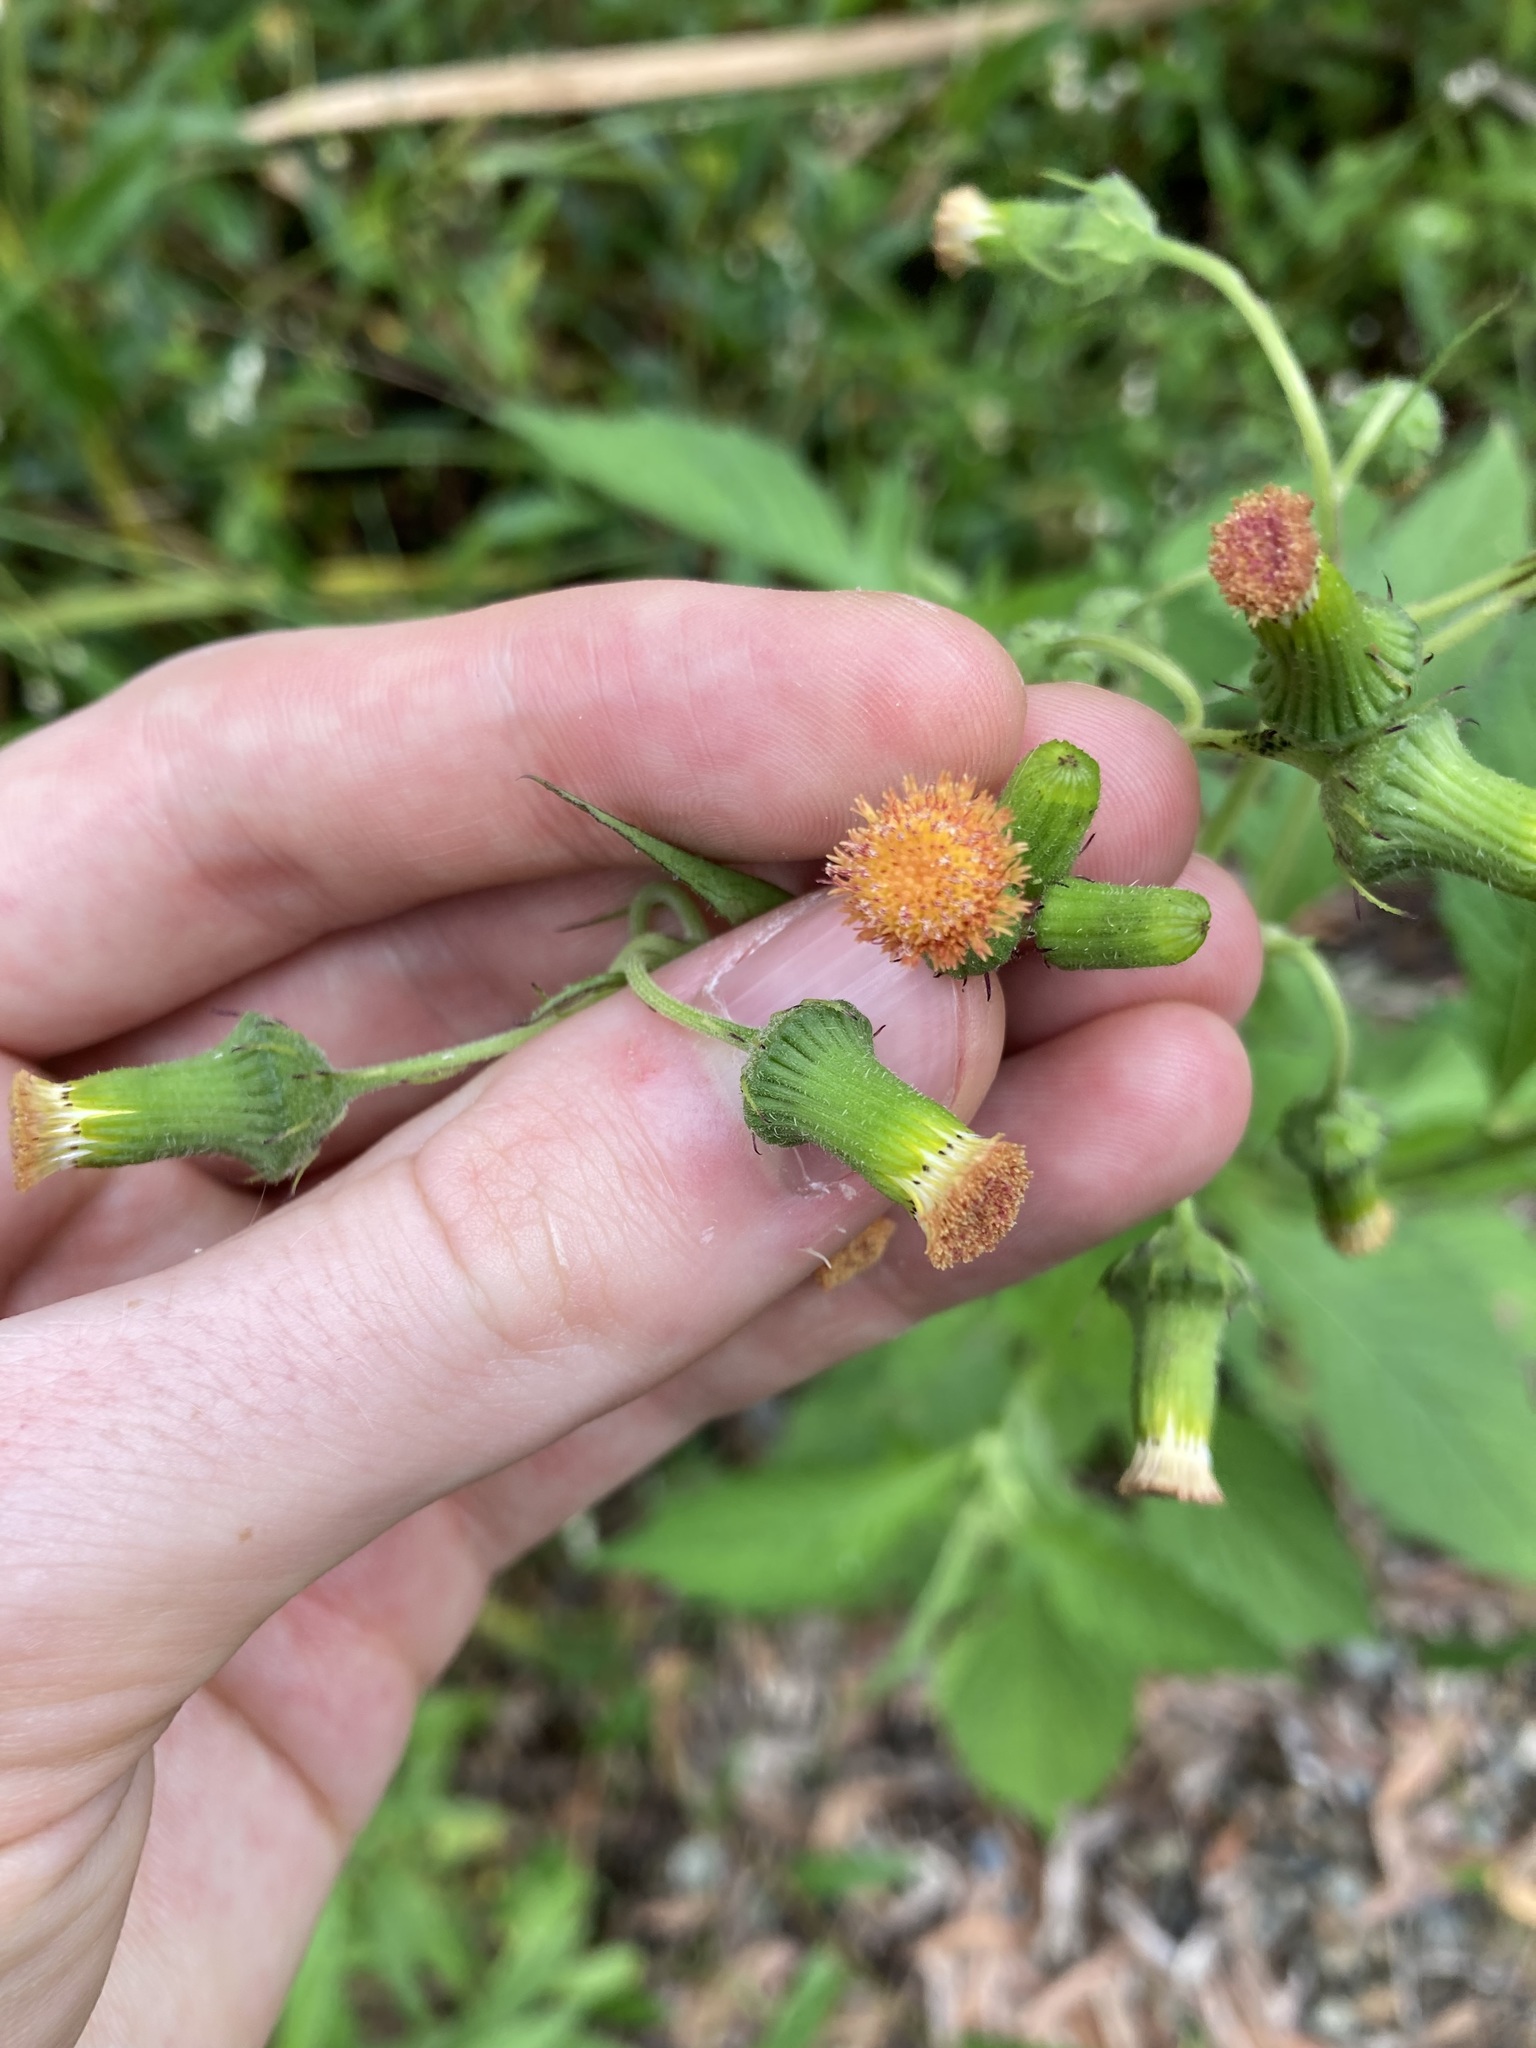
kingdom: Plantae
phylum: Tracheophyta
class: Magnoliopsida
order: Asterales
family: Asteraceae
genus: Crassocephalum
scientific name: Crassocephalum crepidioides
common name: Redflower ragleaf
